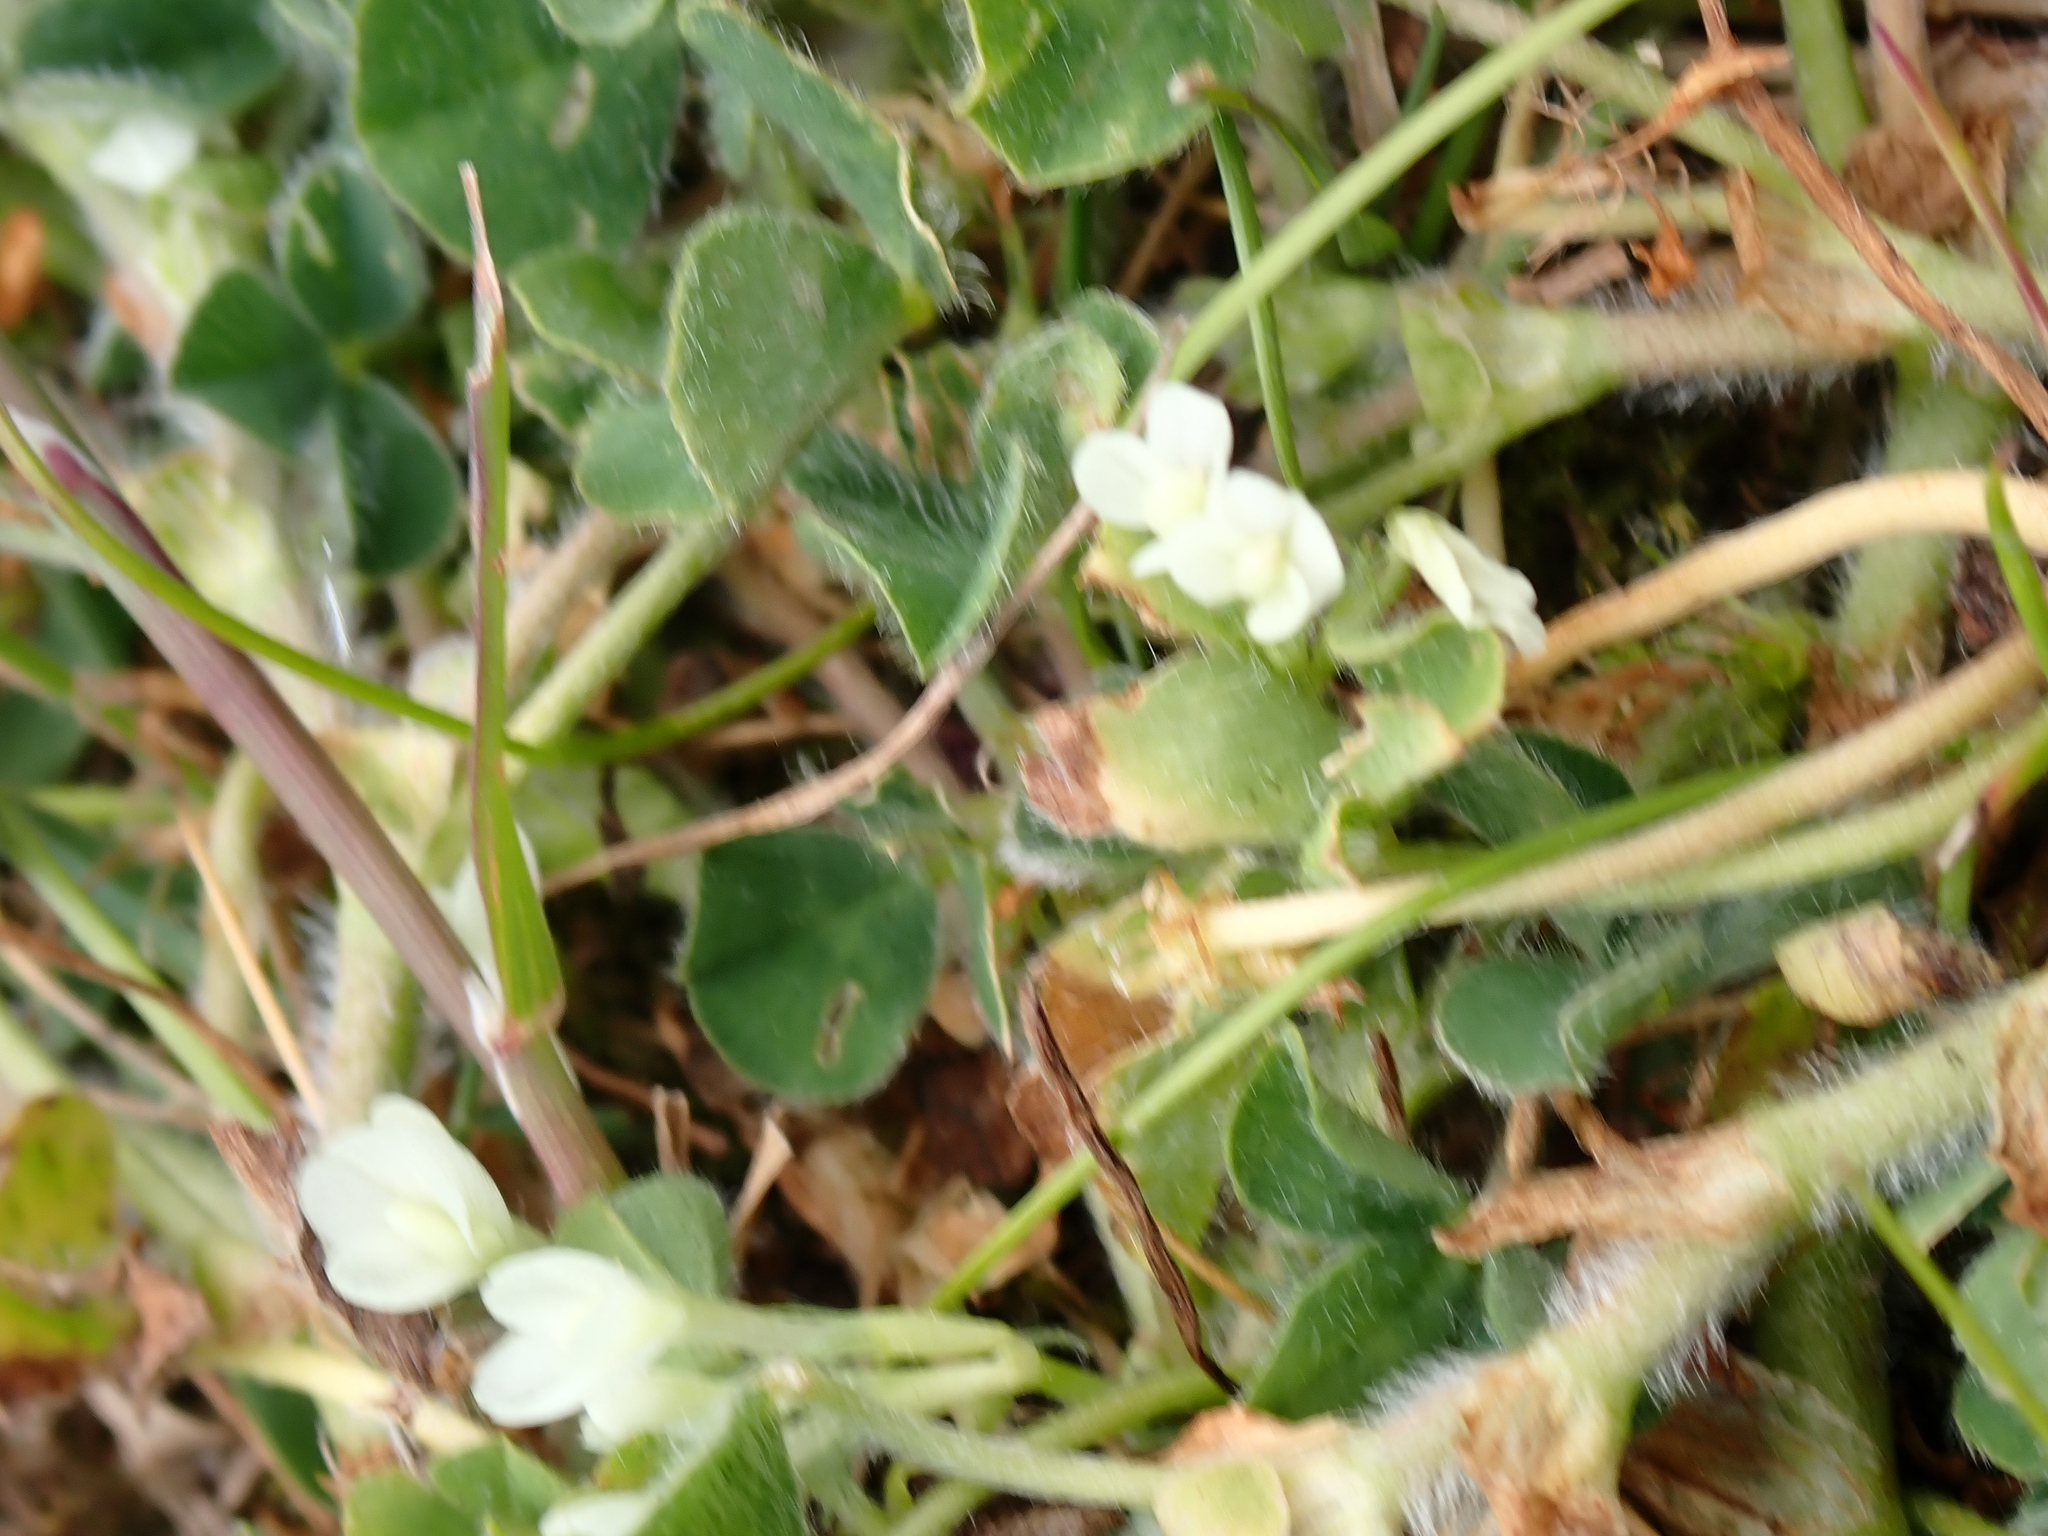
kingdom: Plantae
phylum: Tracheophyta
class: Magnoliopsida
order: Fabales
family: Fabaceae
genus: Trifolium
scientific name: Trifolium subterraneum
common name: Subterranean clover
